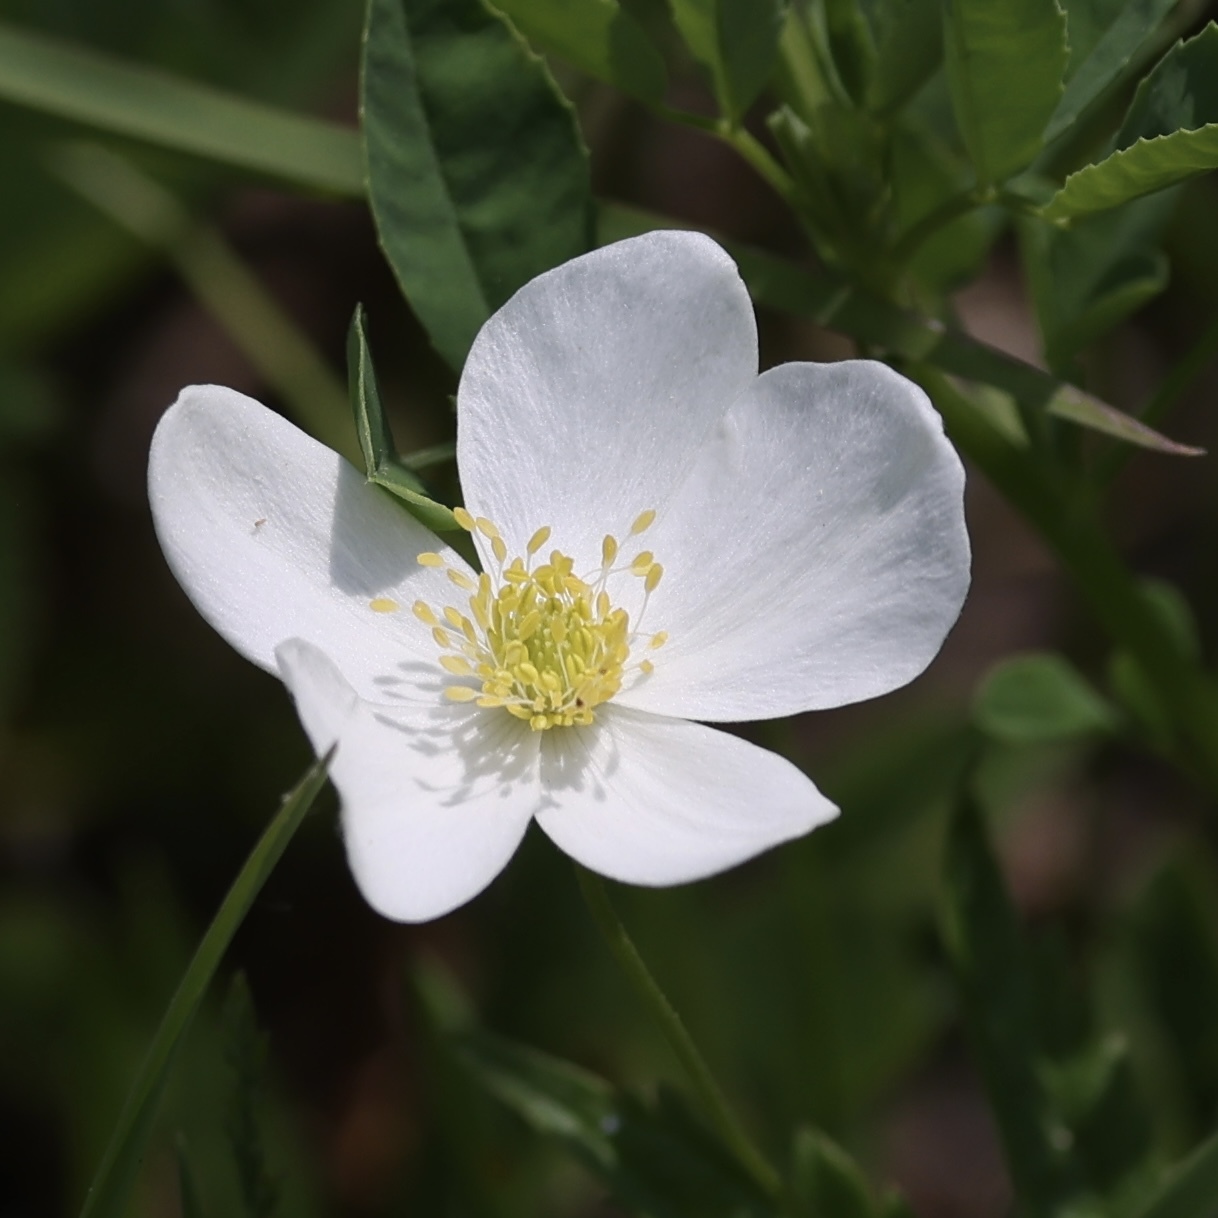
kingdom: Plantae
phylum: Tracheophyta
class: Magnoliopsida
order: Ranunculales
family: Ranunculaceae
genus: Anemonastrum
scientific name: Anemonastrum canadense
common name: Canada anemone
